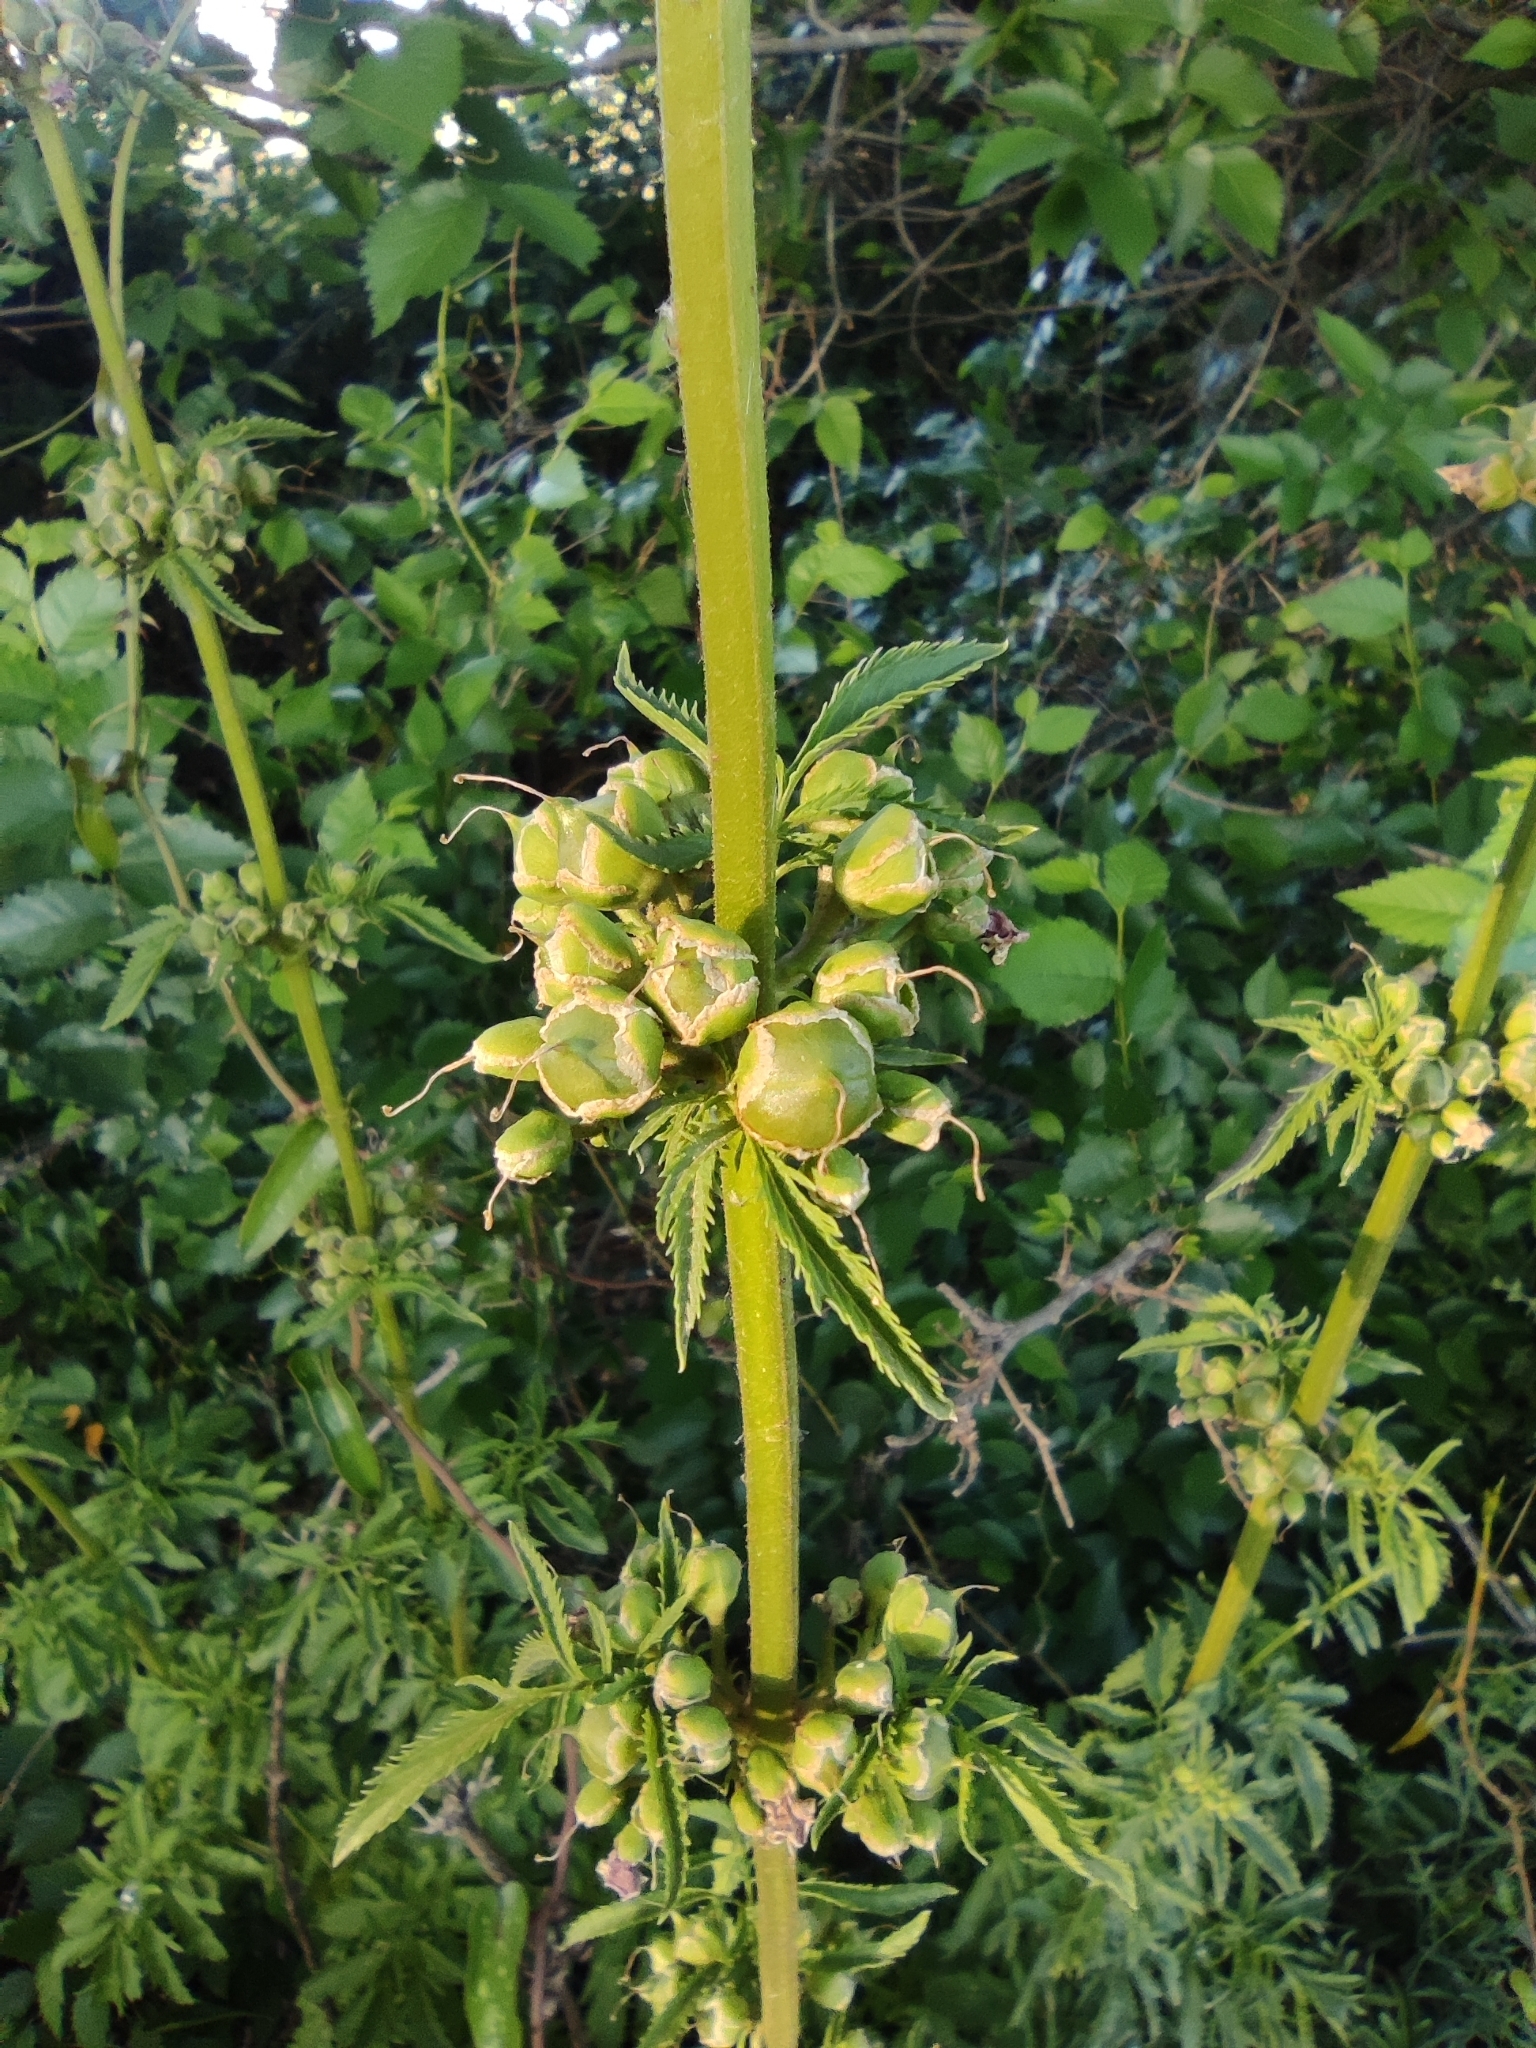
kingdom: Plantae
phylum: Tracheophyta
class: Magnoliopsida
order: Lamiales
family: Scrophulariaceae
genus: Scrophularia
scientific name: Scrophularia sambucifolia
